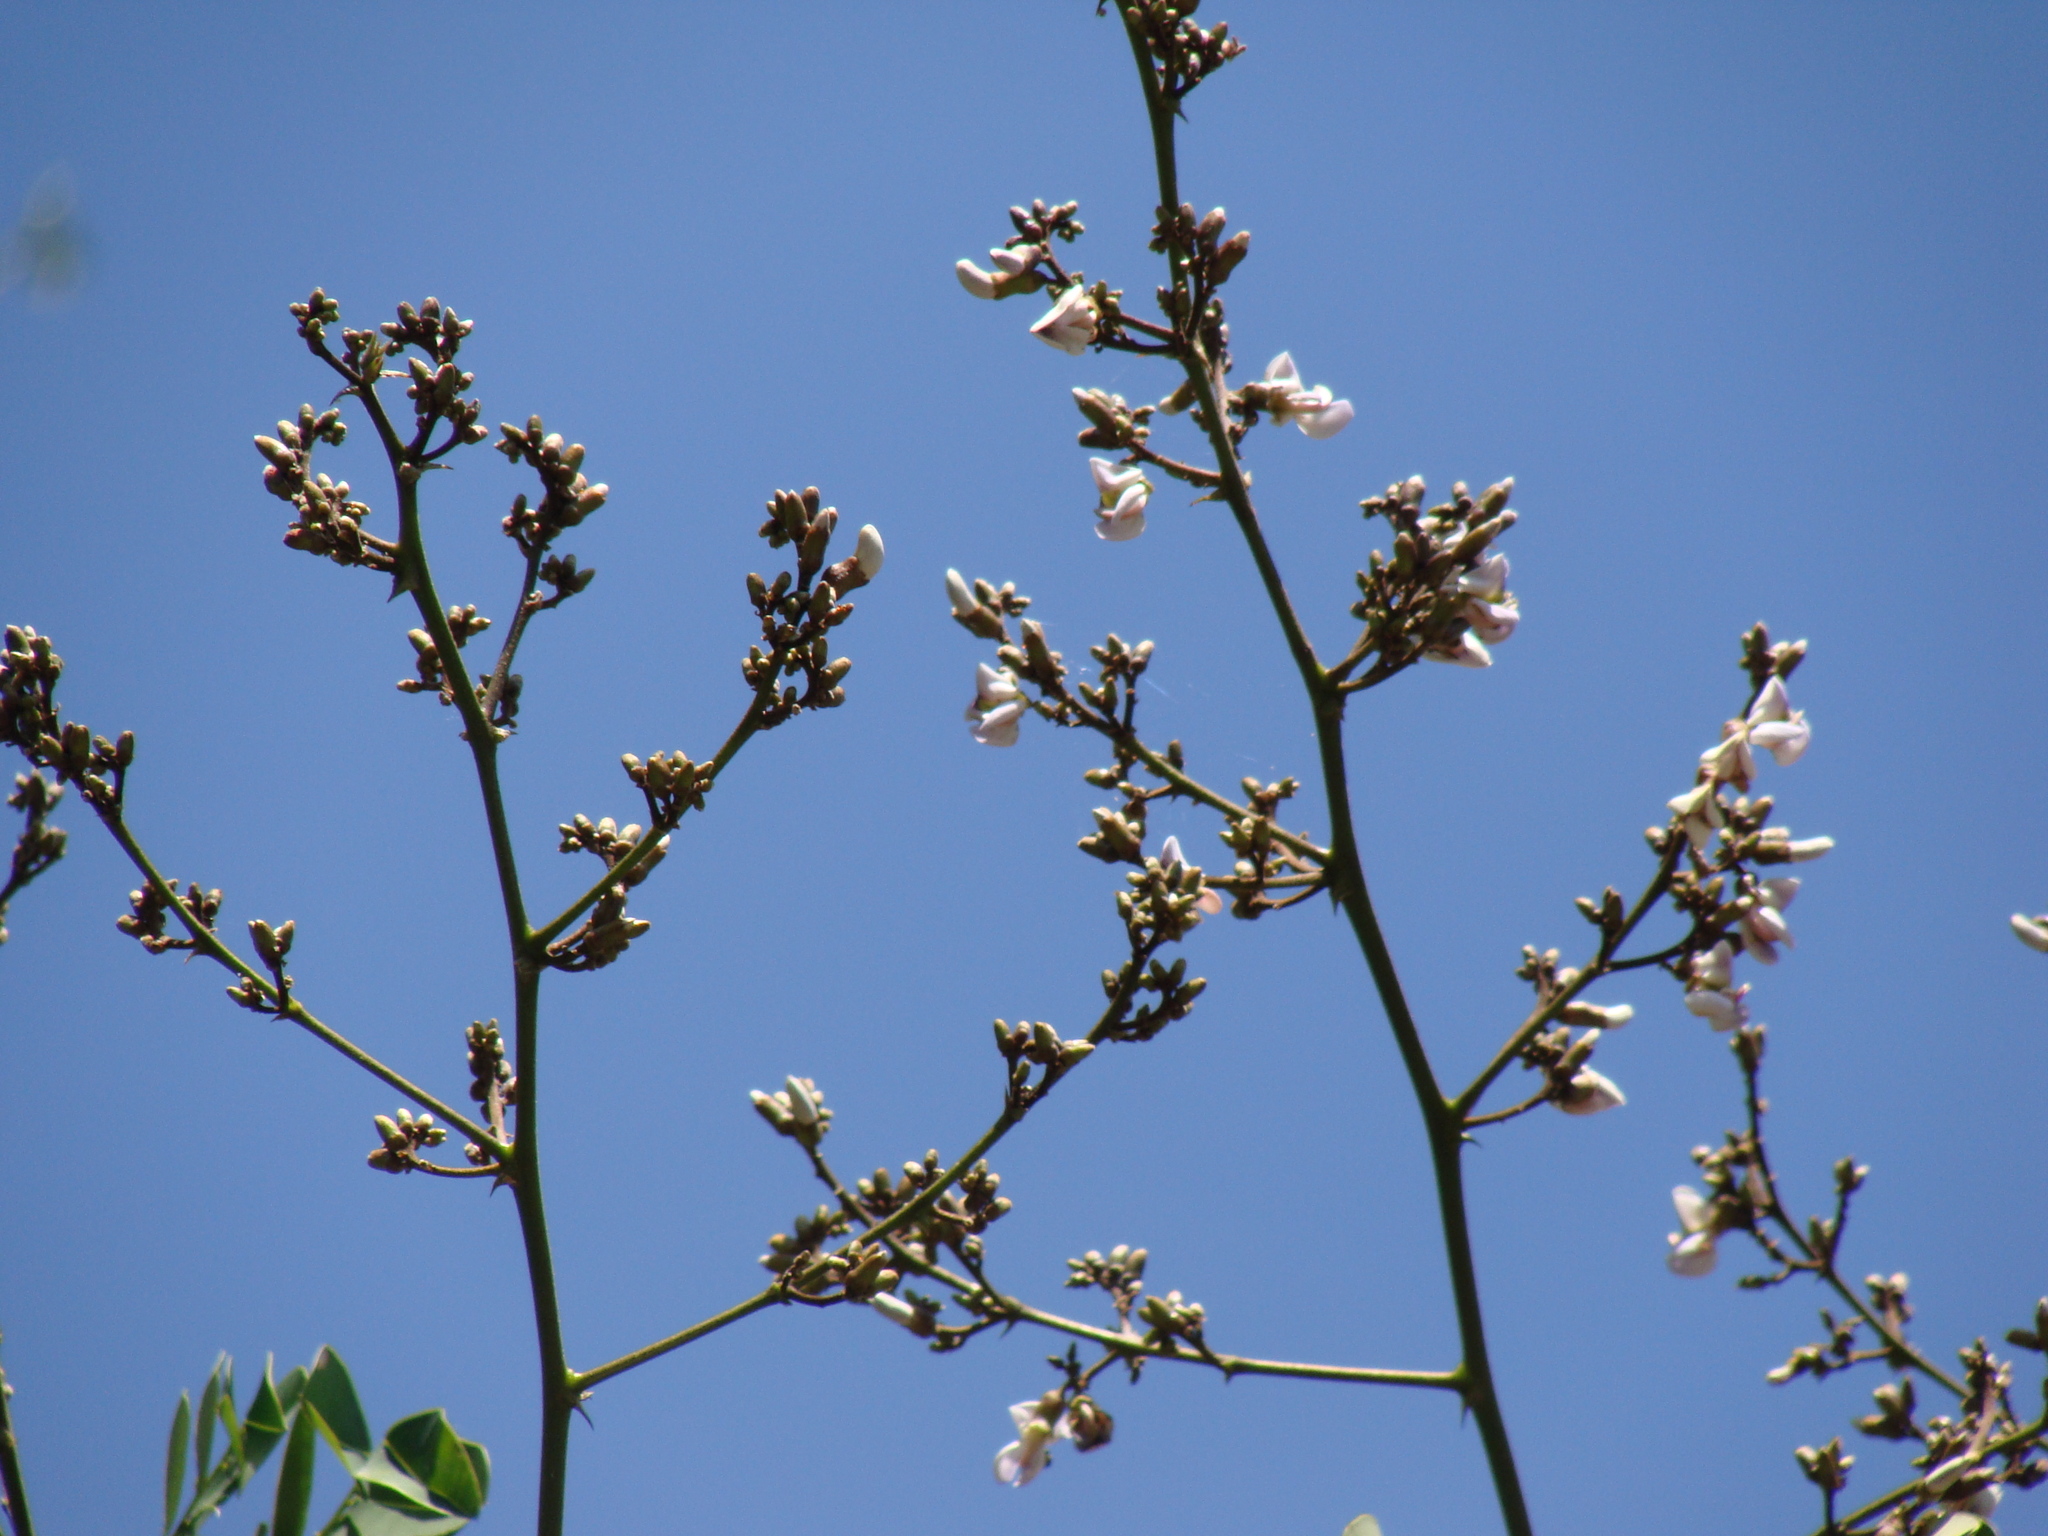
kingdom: Plantae
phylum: Tracheophyta
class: Magnoliopsida
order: Fabales
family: Fabaceae
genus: Machaerium
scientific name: Machaerium biovulatum
